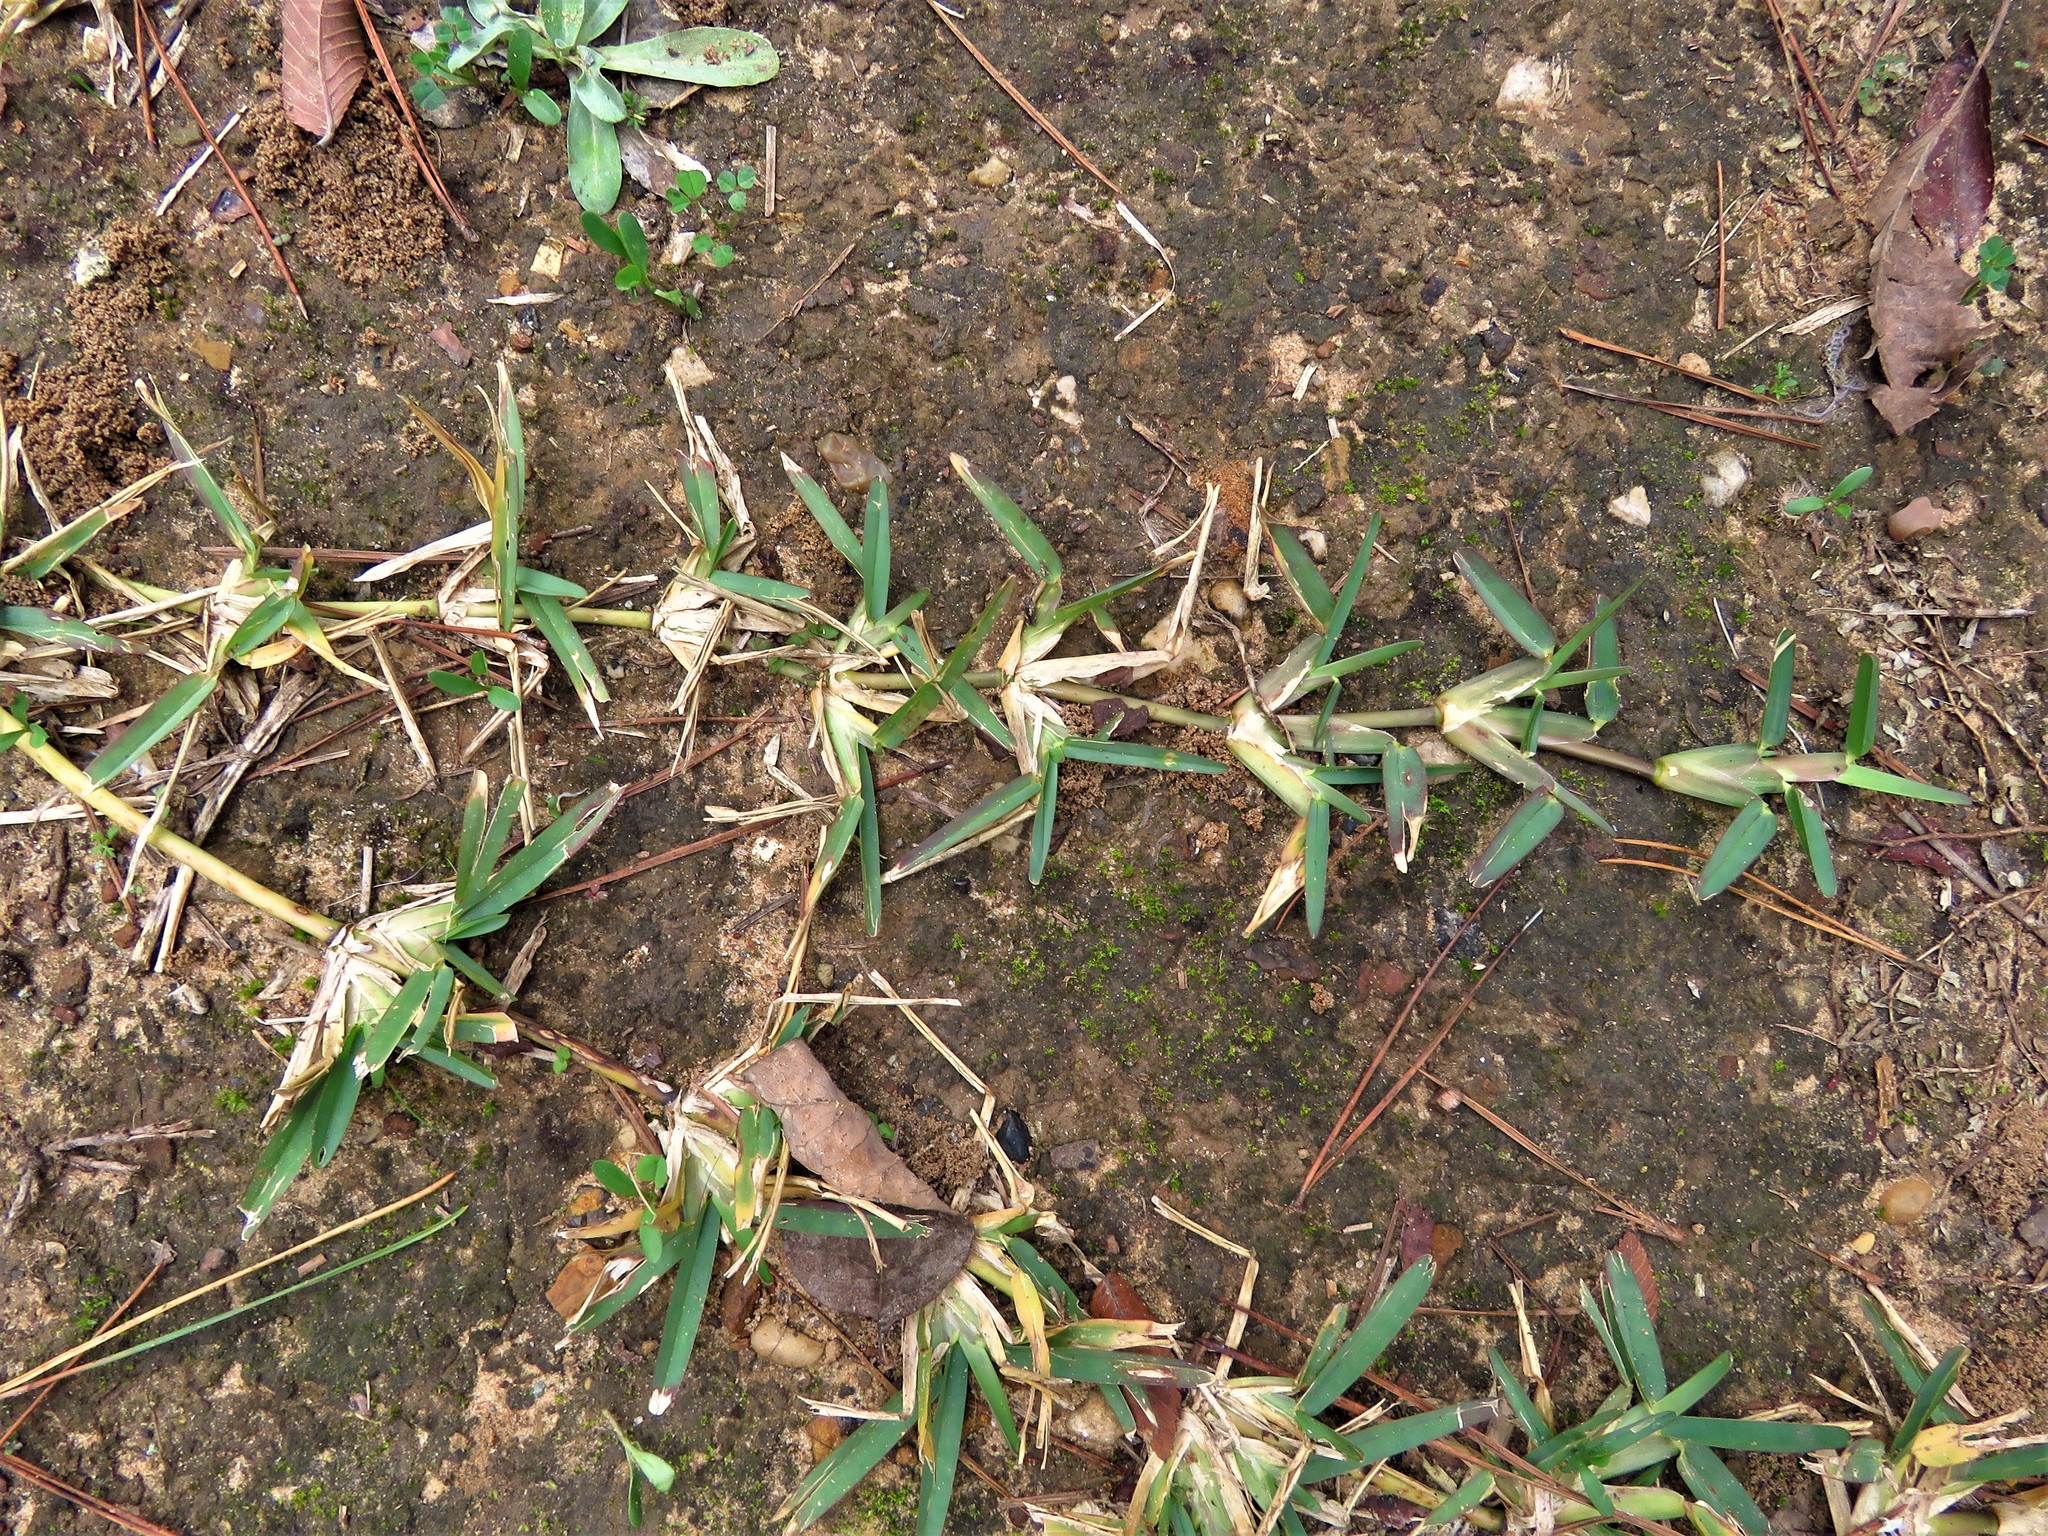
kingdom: Plantae
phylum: Tracheophyta
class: Liliopsida
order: Poales
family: Poaceae
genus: Stenotaphrum
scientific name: Stenotaphrum secundatum
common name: St. augustine grass
